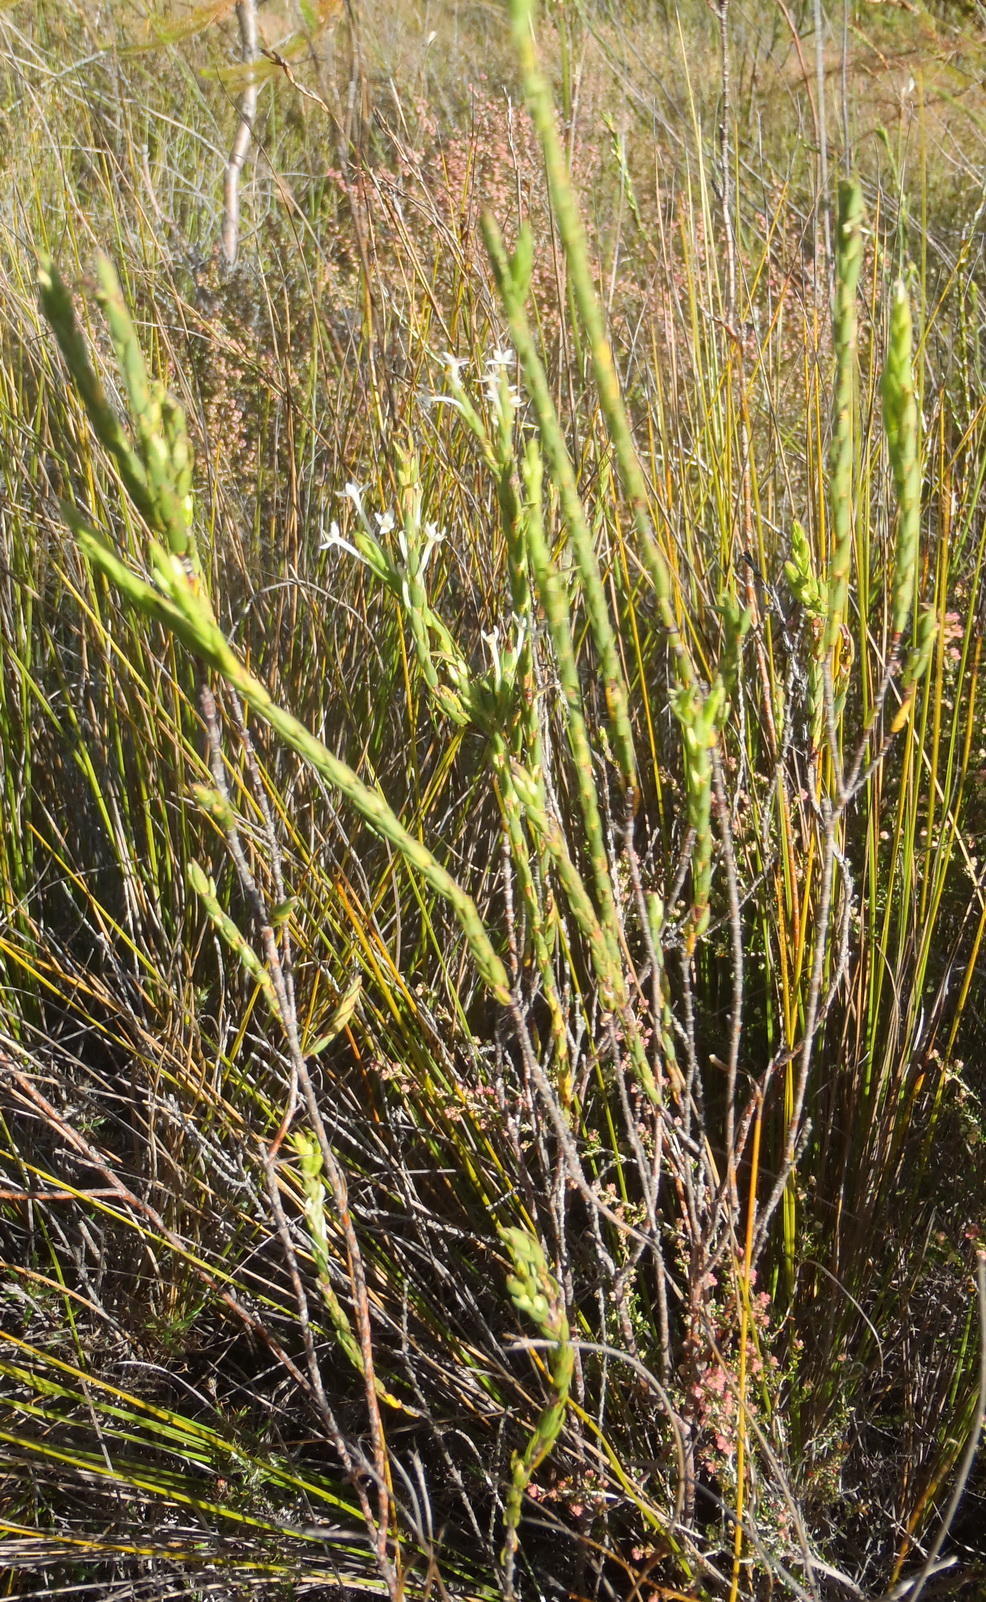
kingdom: Plantae
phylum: Tracheophyta
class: Magnoliopsida
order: Malvales
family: Thymelaeaceae
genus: Struthiola
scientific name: Struthiola myrsinites
